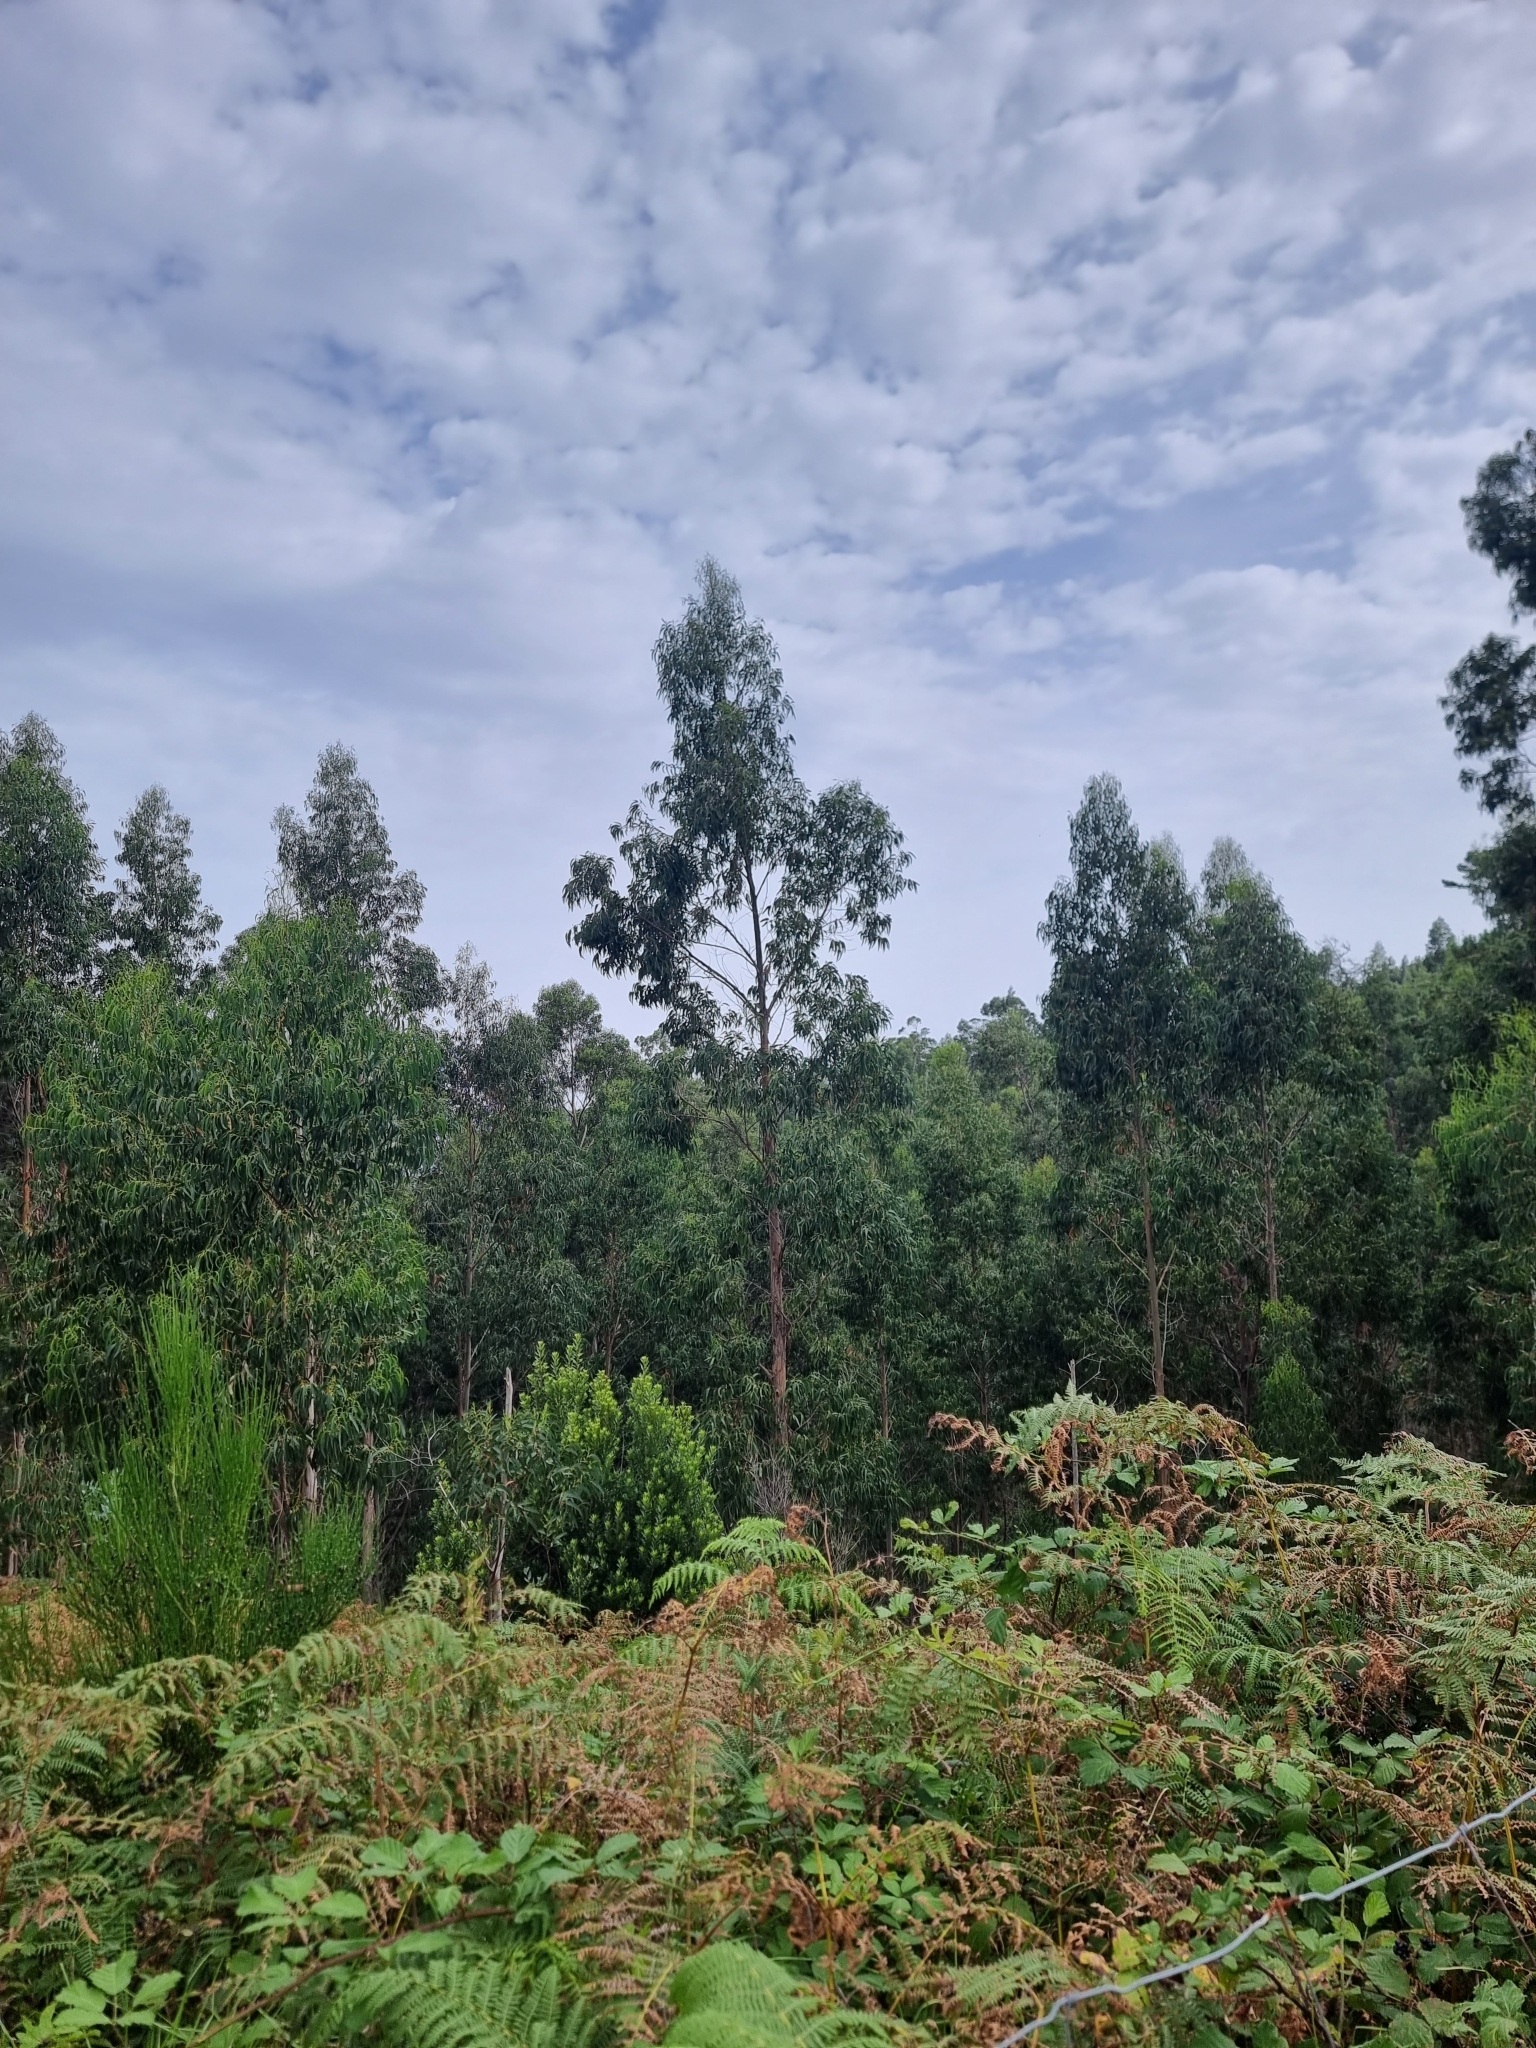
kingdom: Plantae
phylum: Tracheophyta
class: Magnoliopsida
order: Myrtales
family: Myrtaceae
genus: Eucalyptus
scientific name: Eucalyptus globulus
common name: Southern blue-gum
